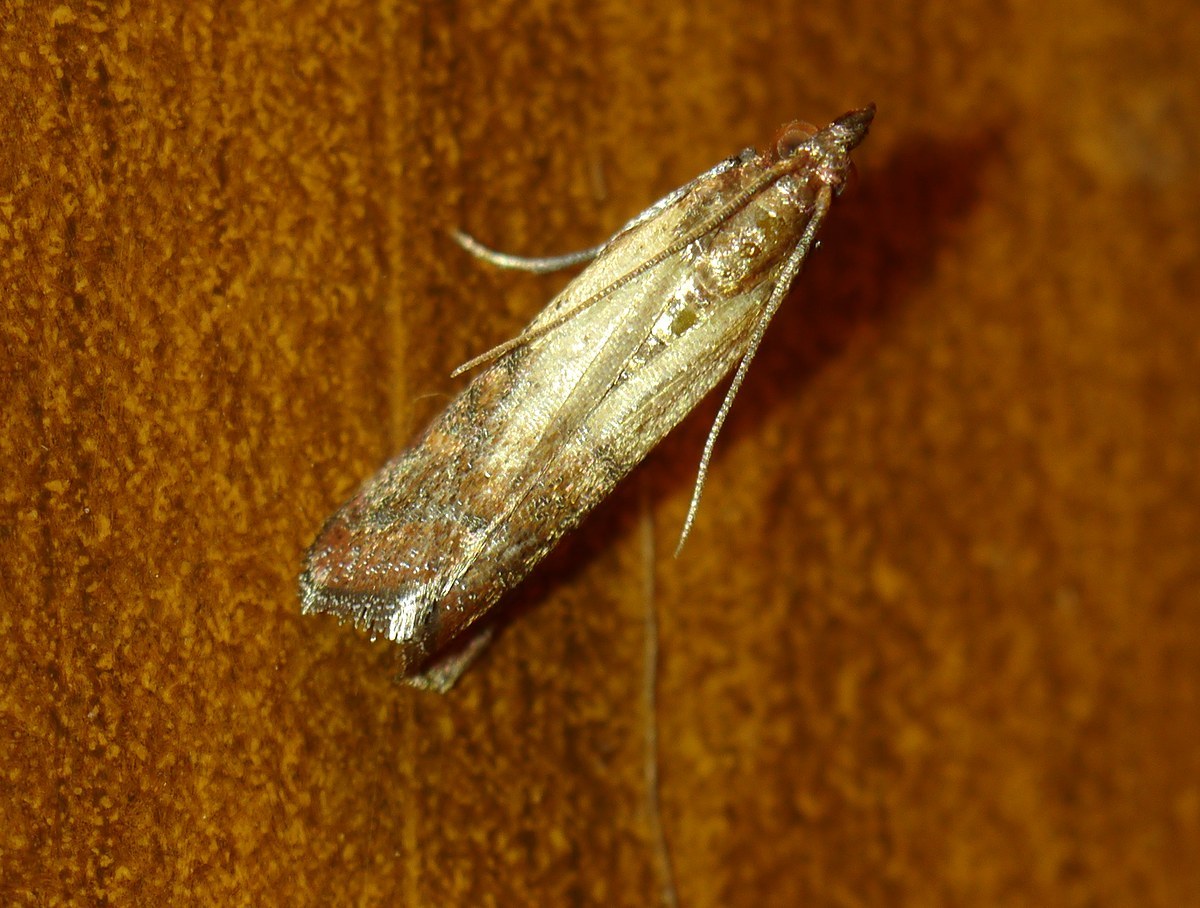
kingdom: Animalia
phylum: Arthropoda
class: Insecta
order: Lepidoptera
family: Pyralidae
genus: Plodia
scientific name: Plodia interpunctella
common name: Indian meal moth
